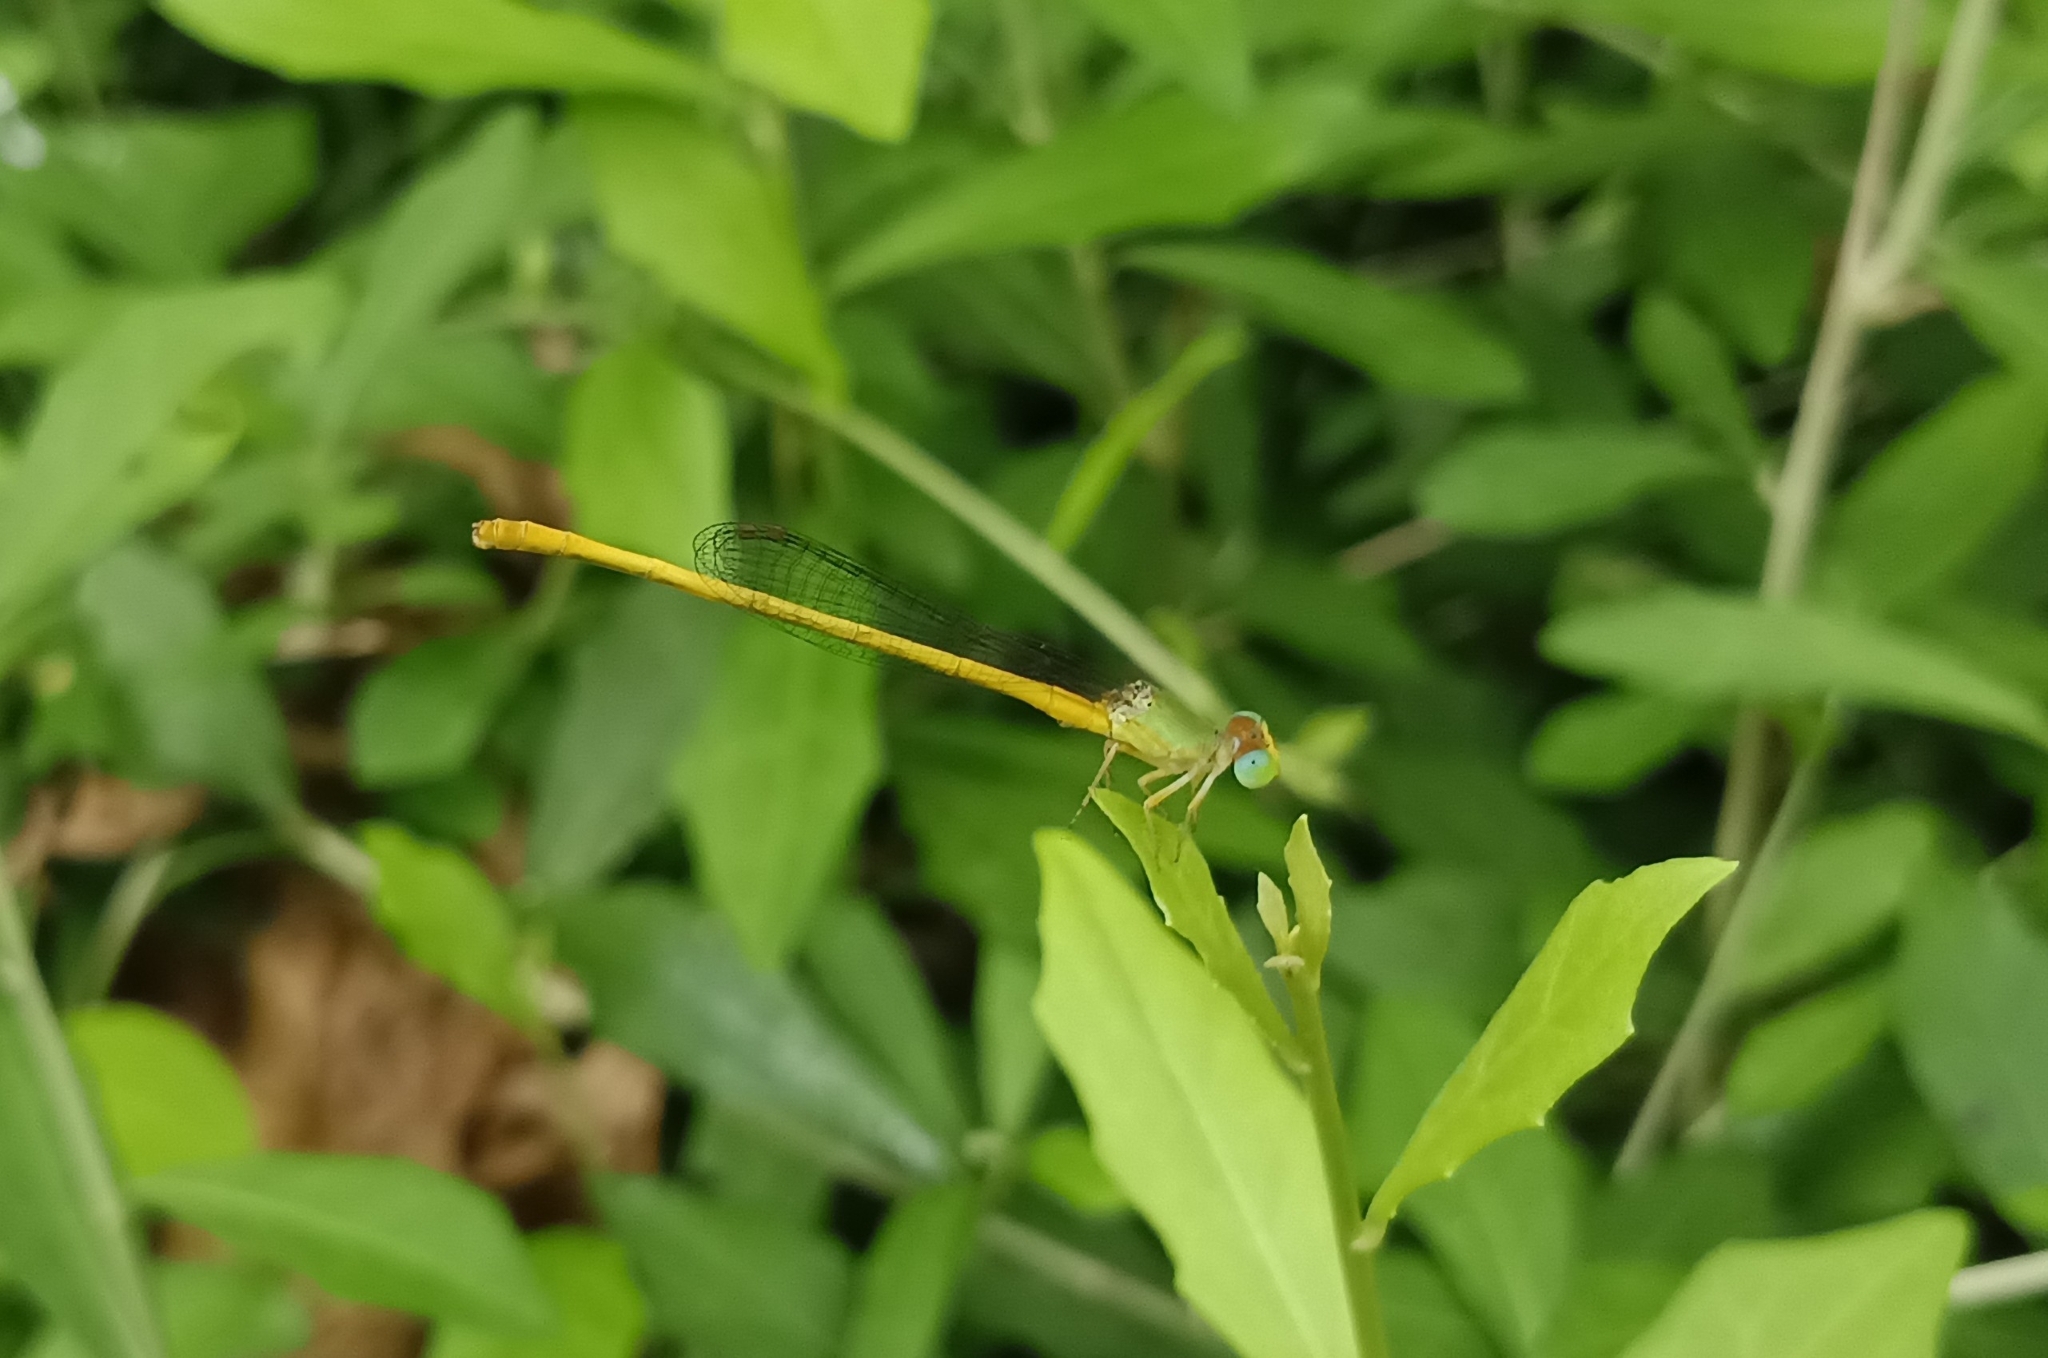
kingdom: Animalia
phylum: Arthropoda
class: Insecta
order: Odonata
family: Coenagrionidae
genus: Ceriagrion
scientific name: Ceriagrion coromandelianum
